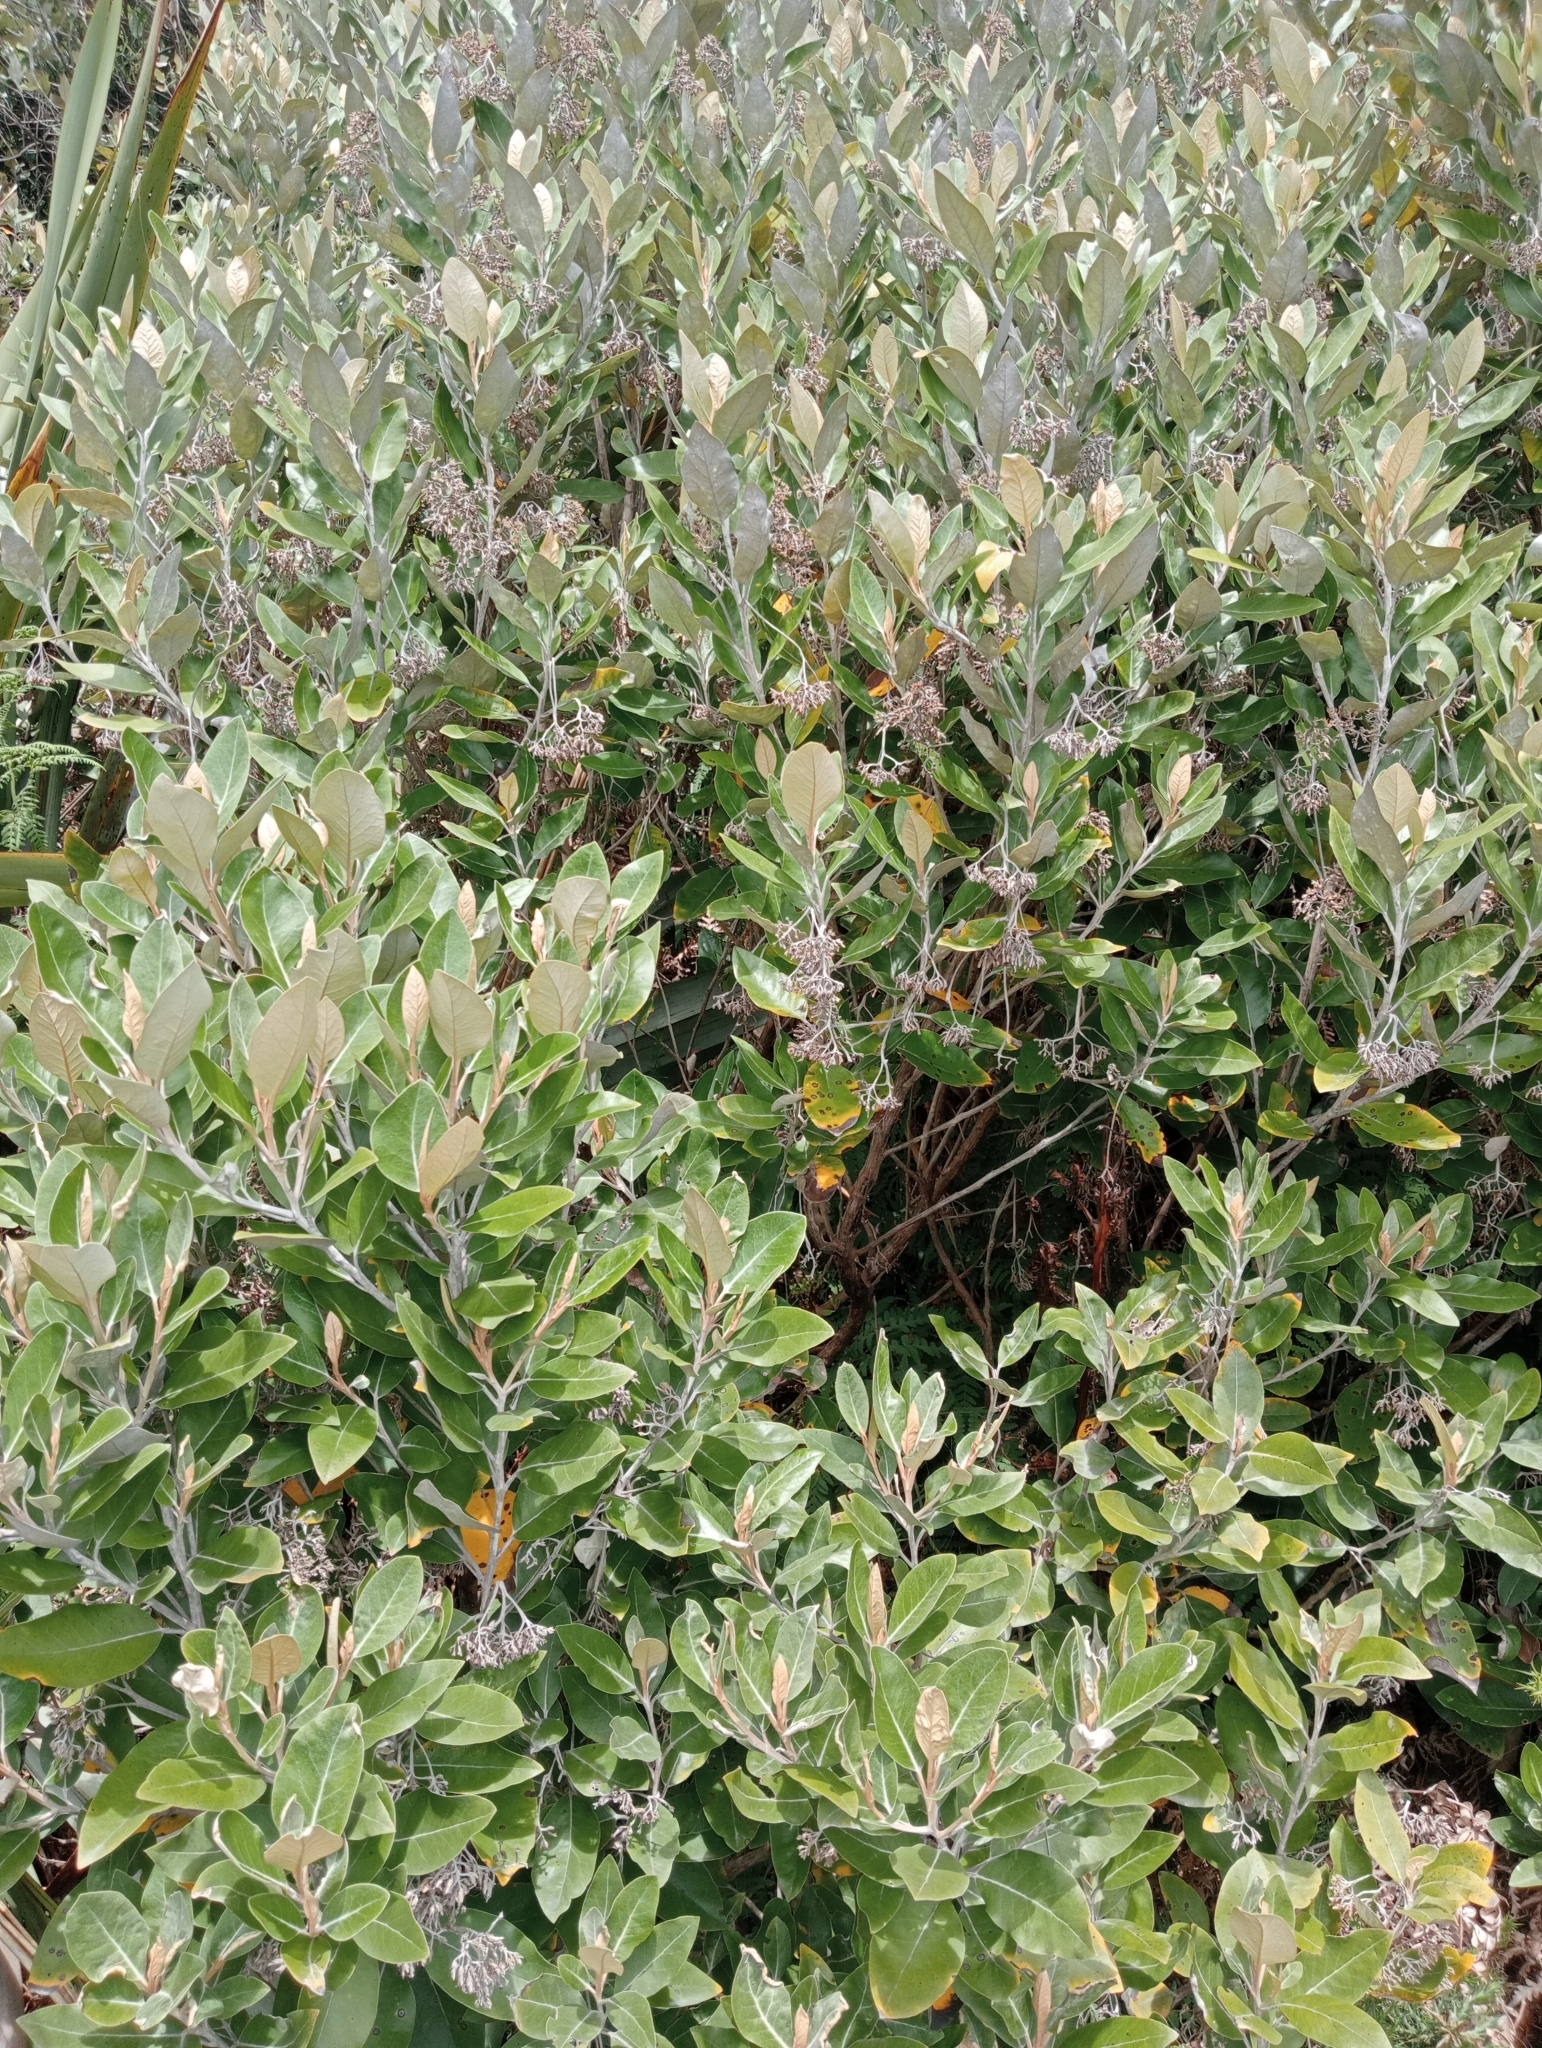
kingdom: Plantae
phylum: Tracheophyta
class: Magnoliopsida
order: Asterales
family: Asteraceae
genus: Olearia
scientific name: Olearia avicenniifolia
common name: Mangrove-leaf daisybush
